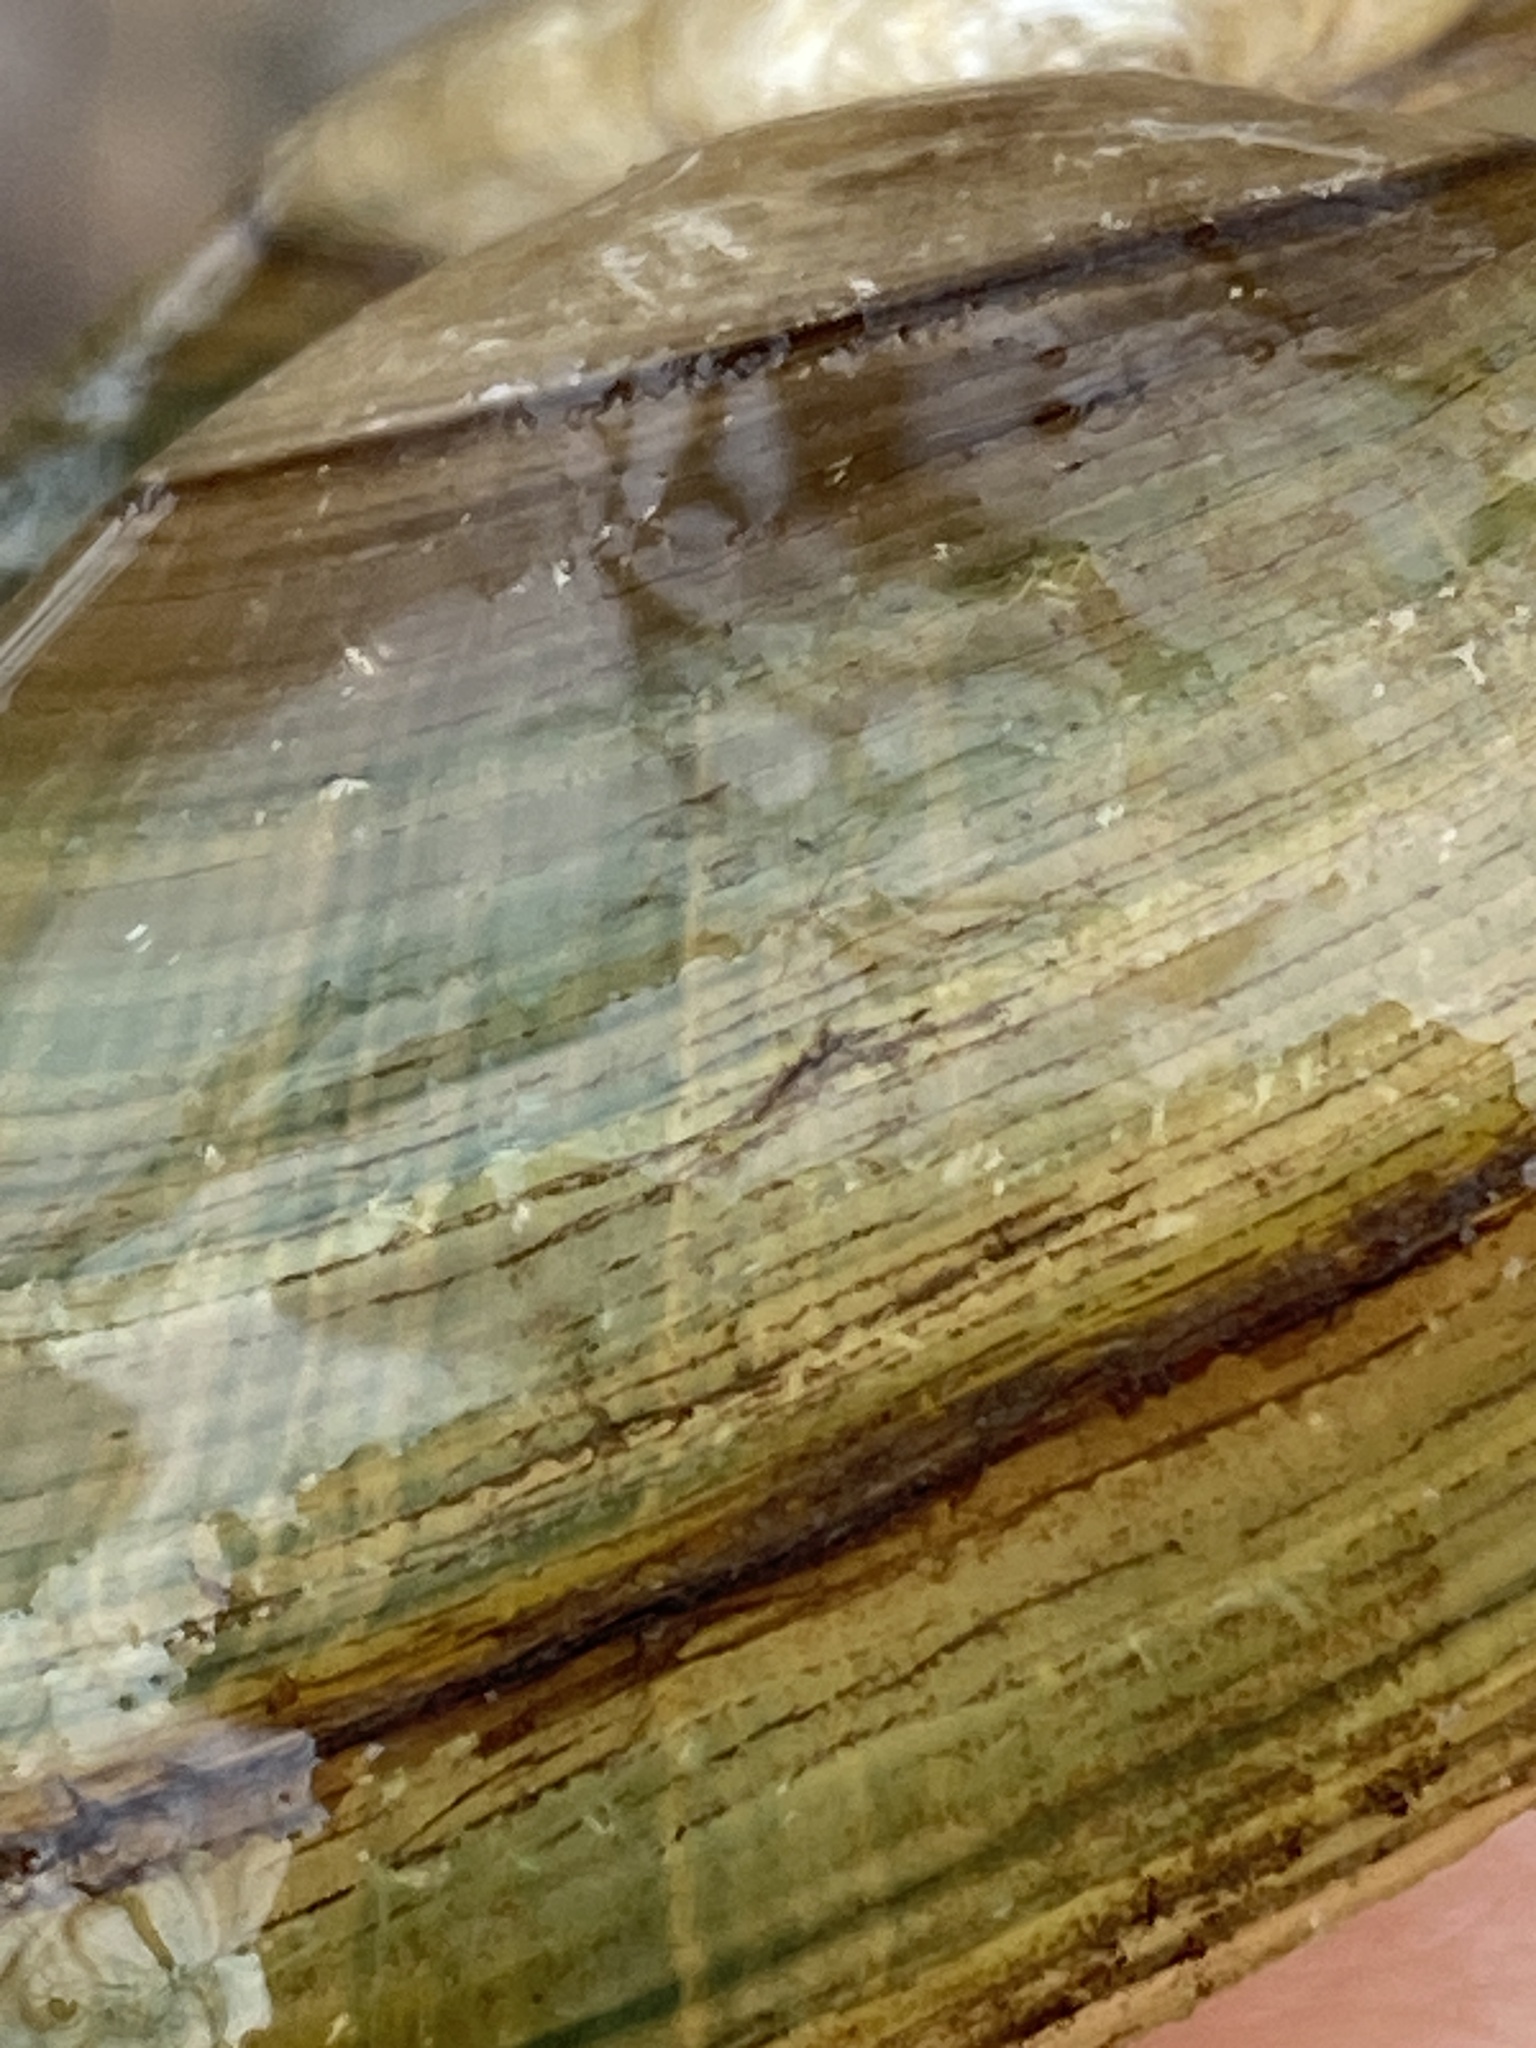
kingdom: Animalia
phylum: Mollusca
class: Bivalvia
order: Unionida
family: Unionidae
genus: Anodontoides
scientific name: Anodontoides ferussacianus
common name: Cylindrical papershell
